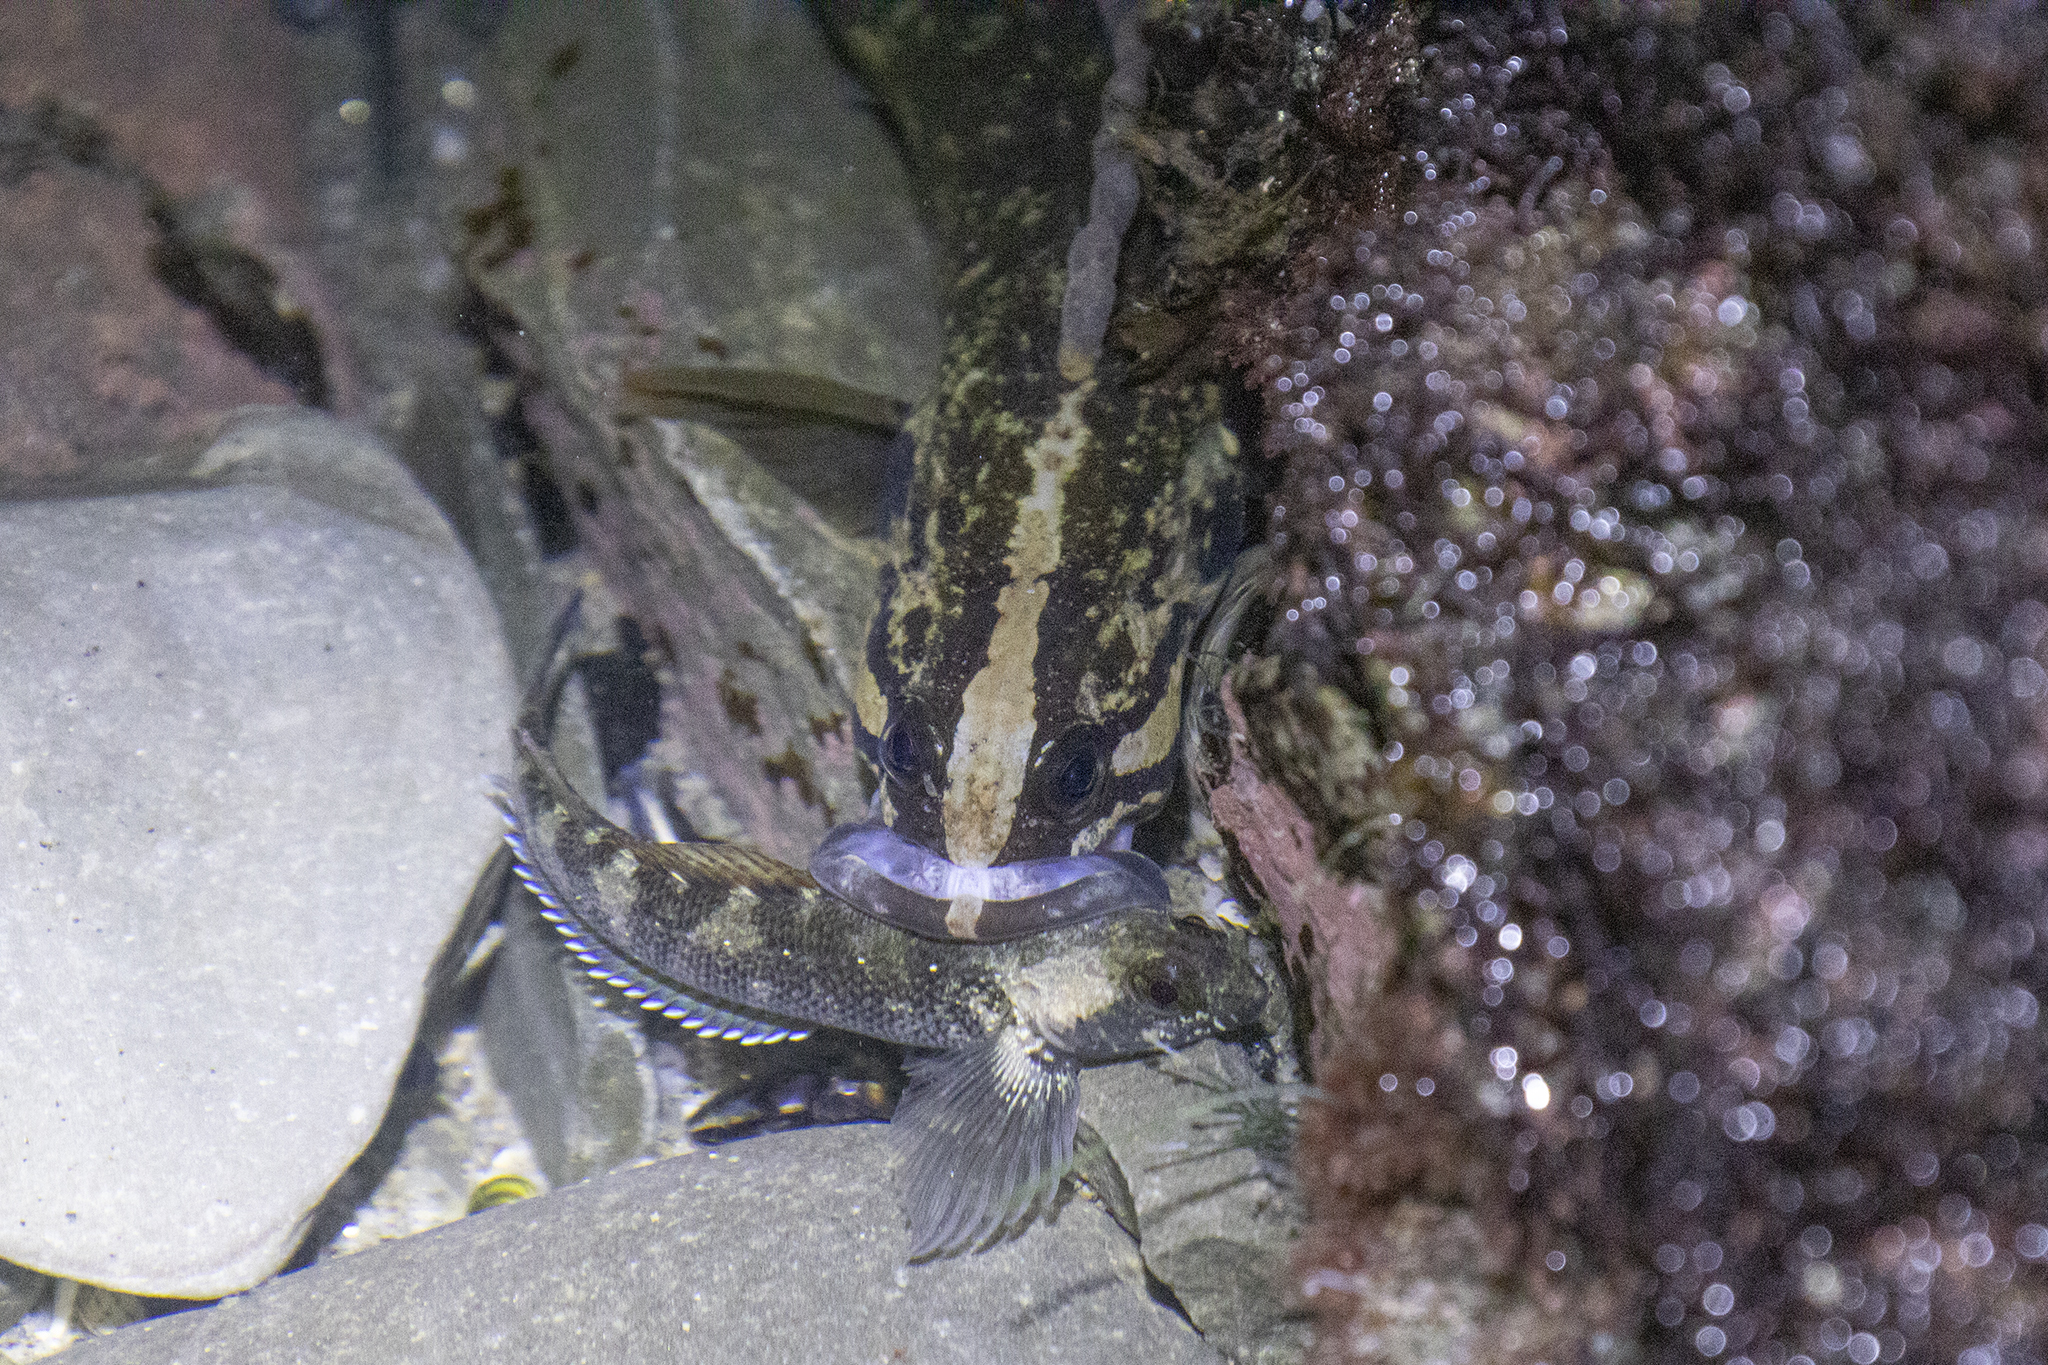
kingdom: Animalia
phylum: Chordata
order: Perciformes
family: Plesiopidae
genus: Acanthoclinus
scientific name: Acanthoclinus fuscus
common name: Olive rockfish
